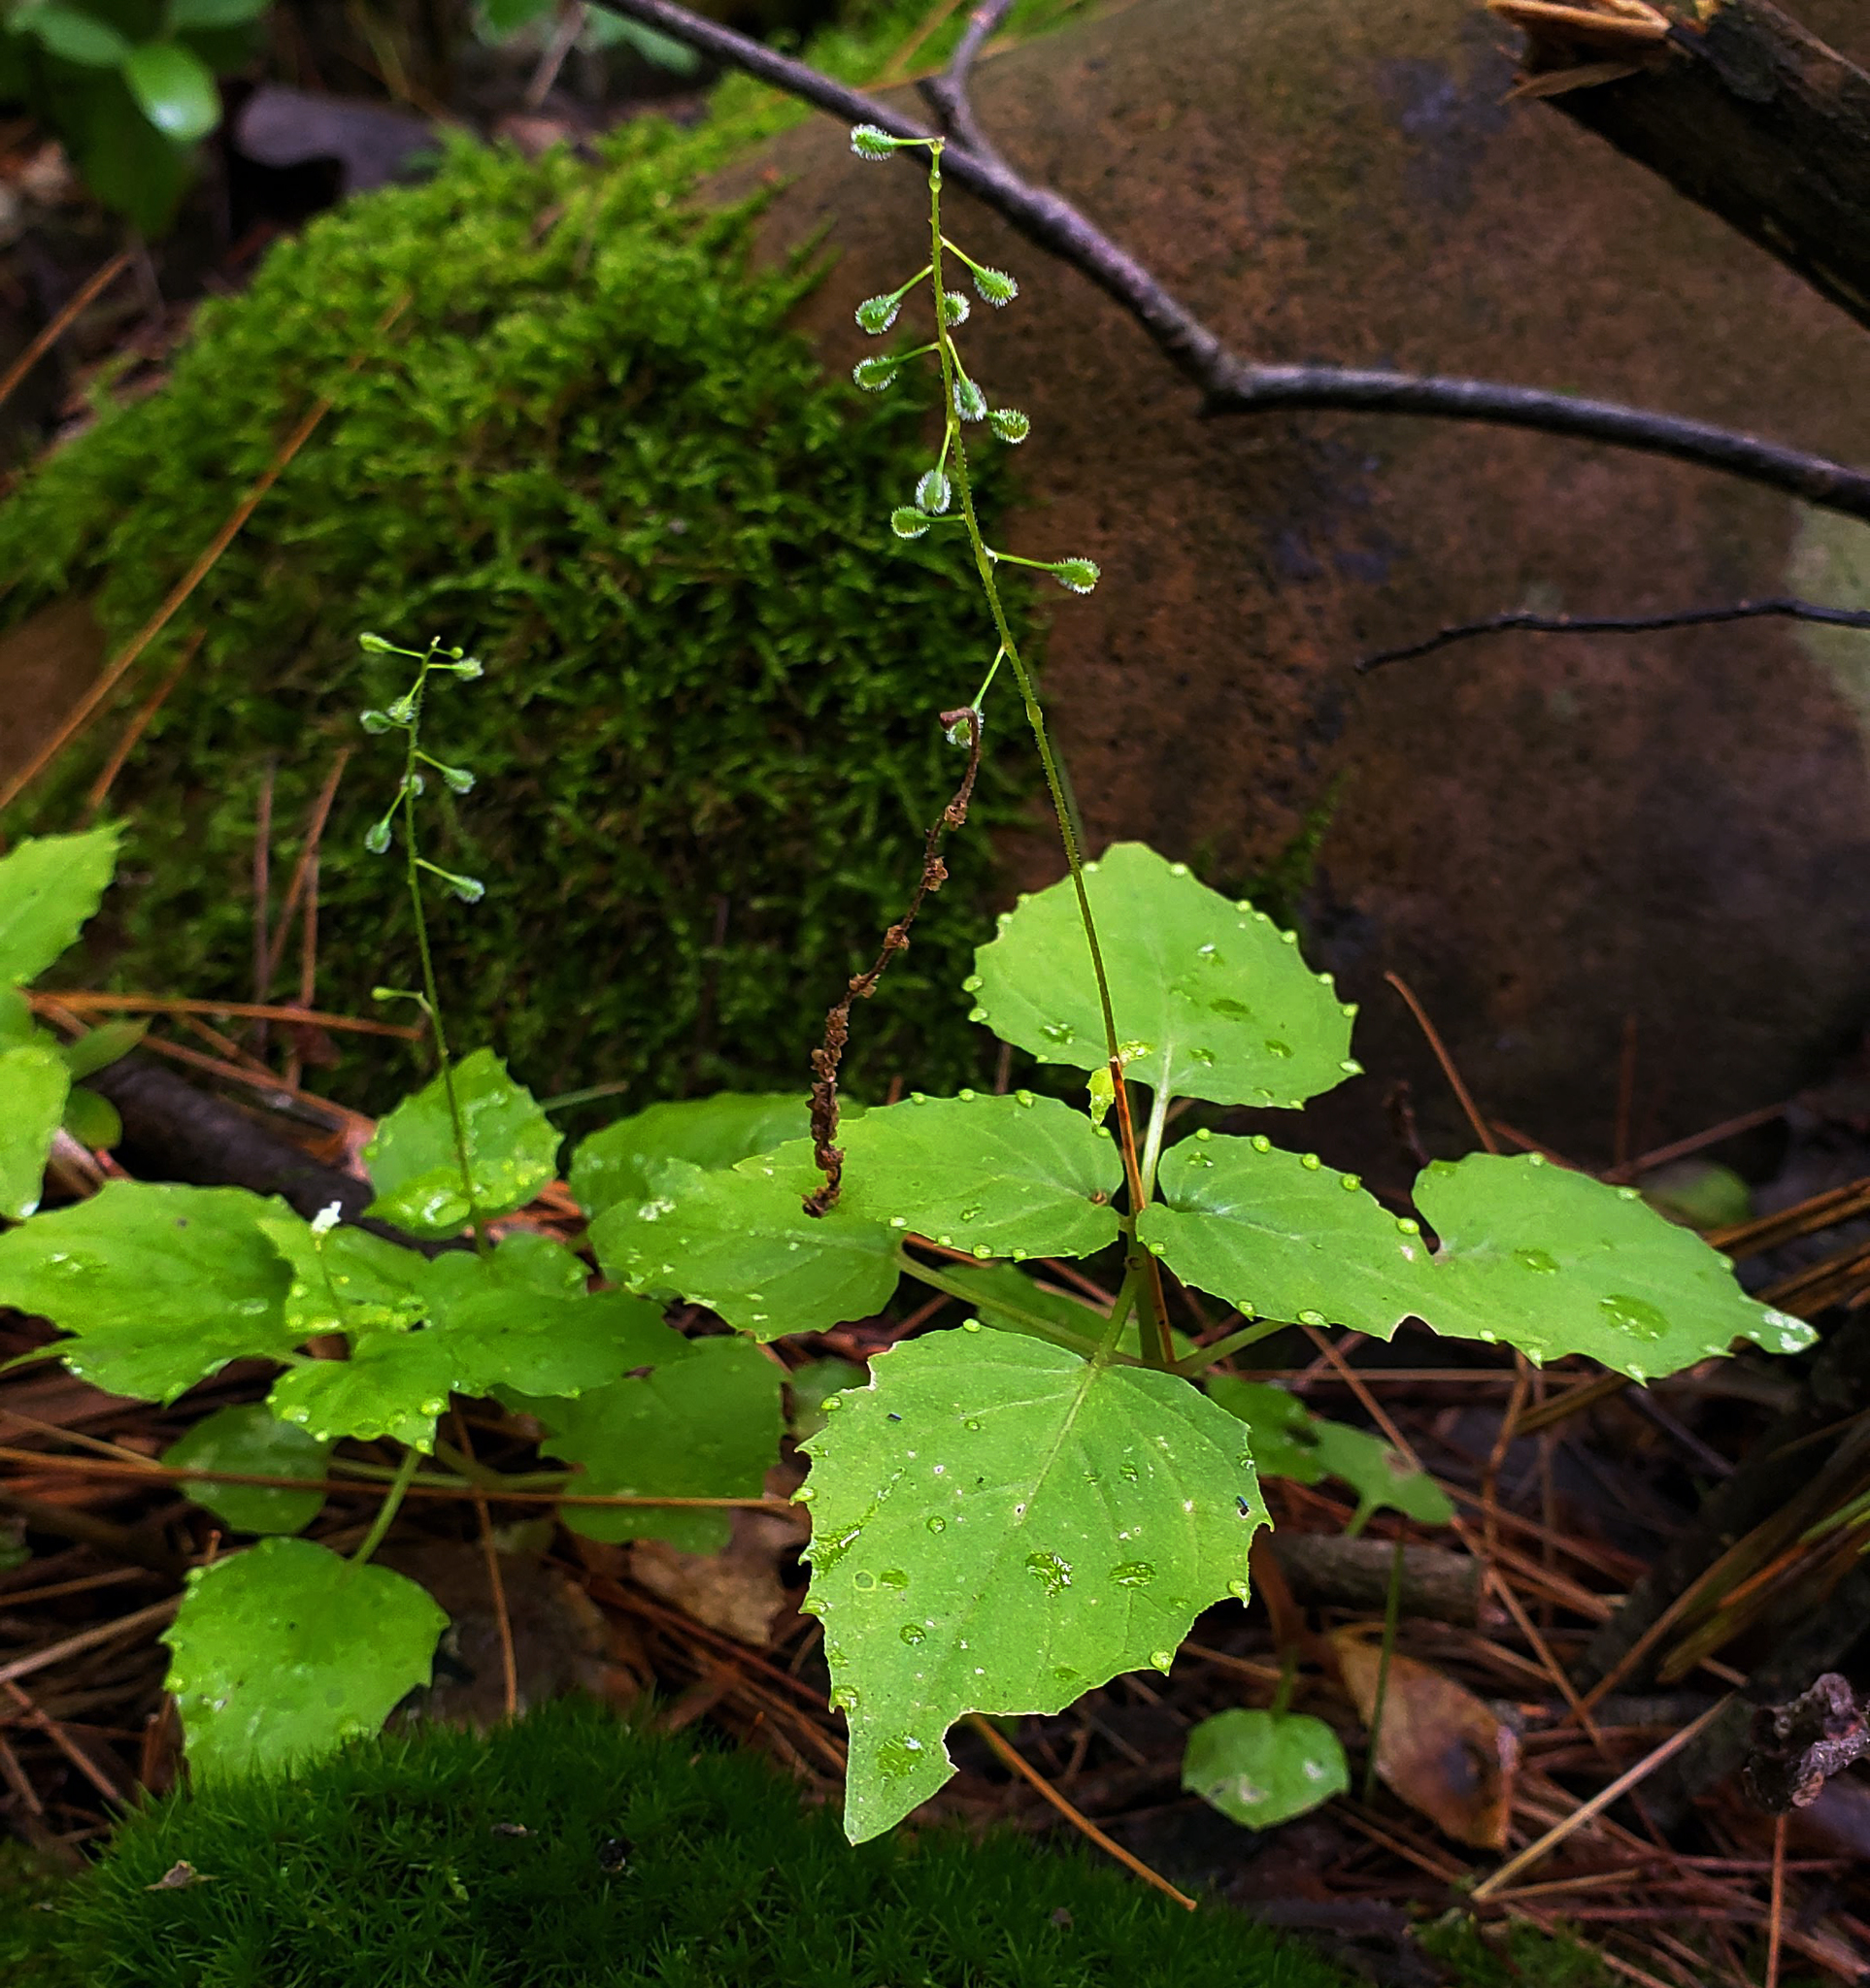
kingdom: Plantae
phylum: Tracheophyta
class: Magnoliopsida
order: Myrtales
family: Onagraceae
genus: Circaea
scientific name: Circaea alpina
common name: Alpine enchanter's-nightshade
